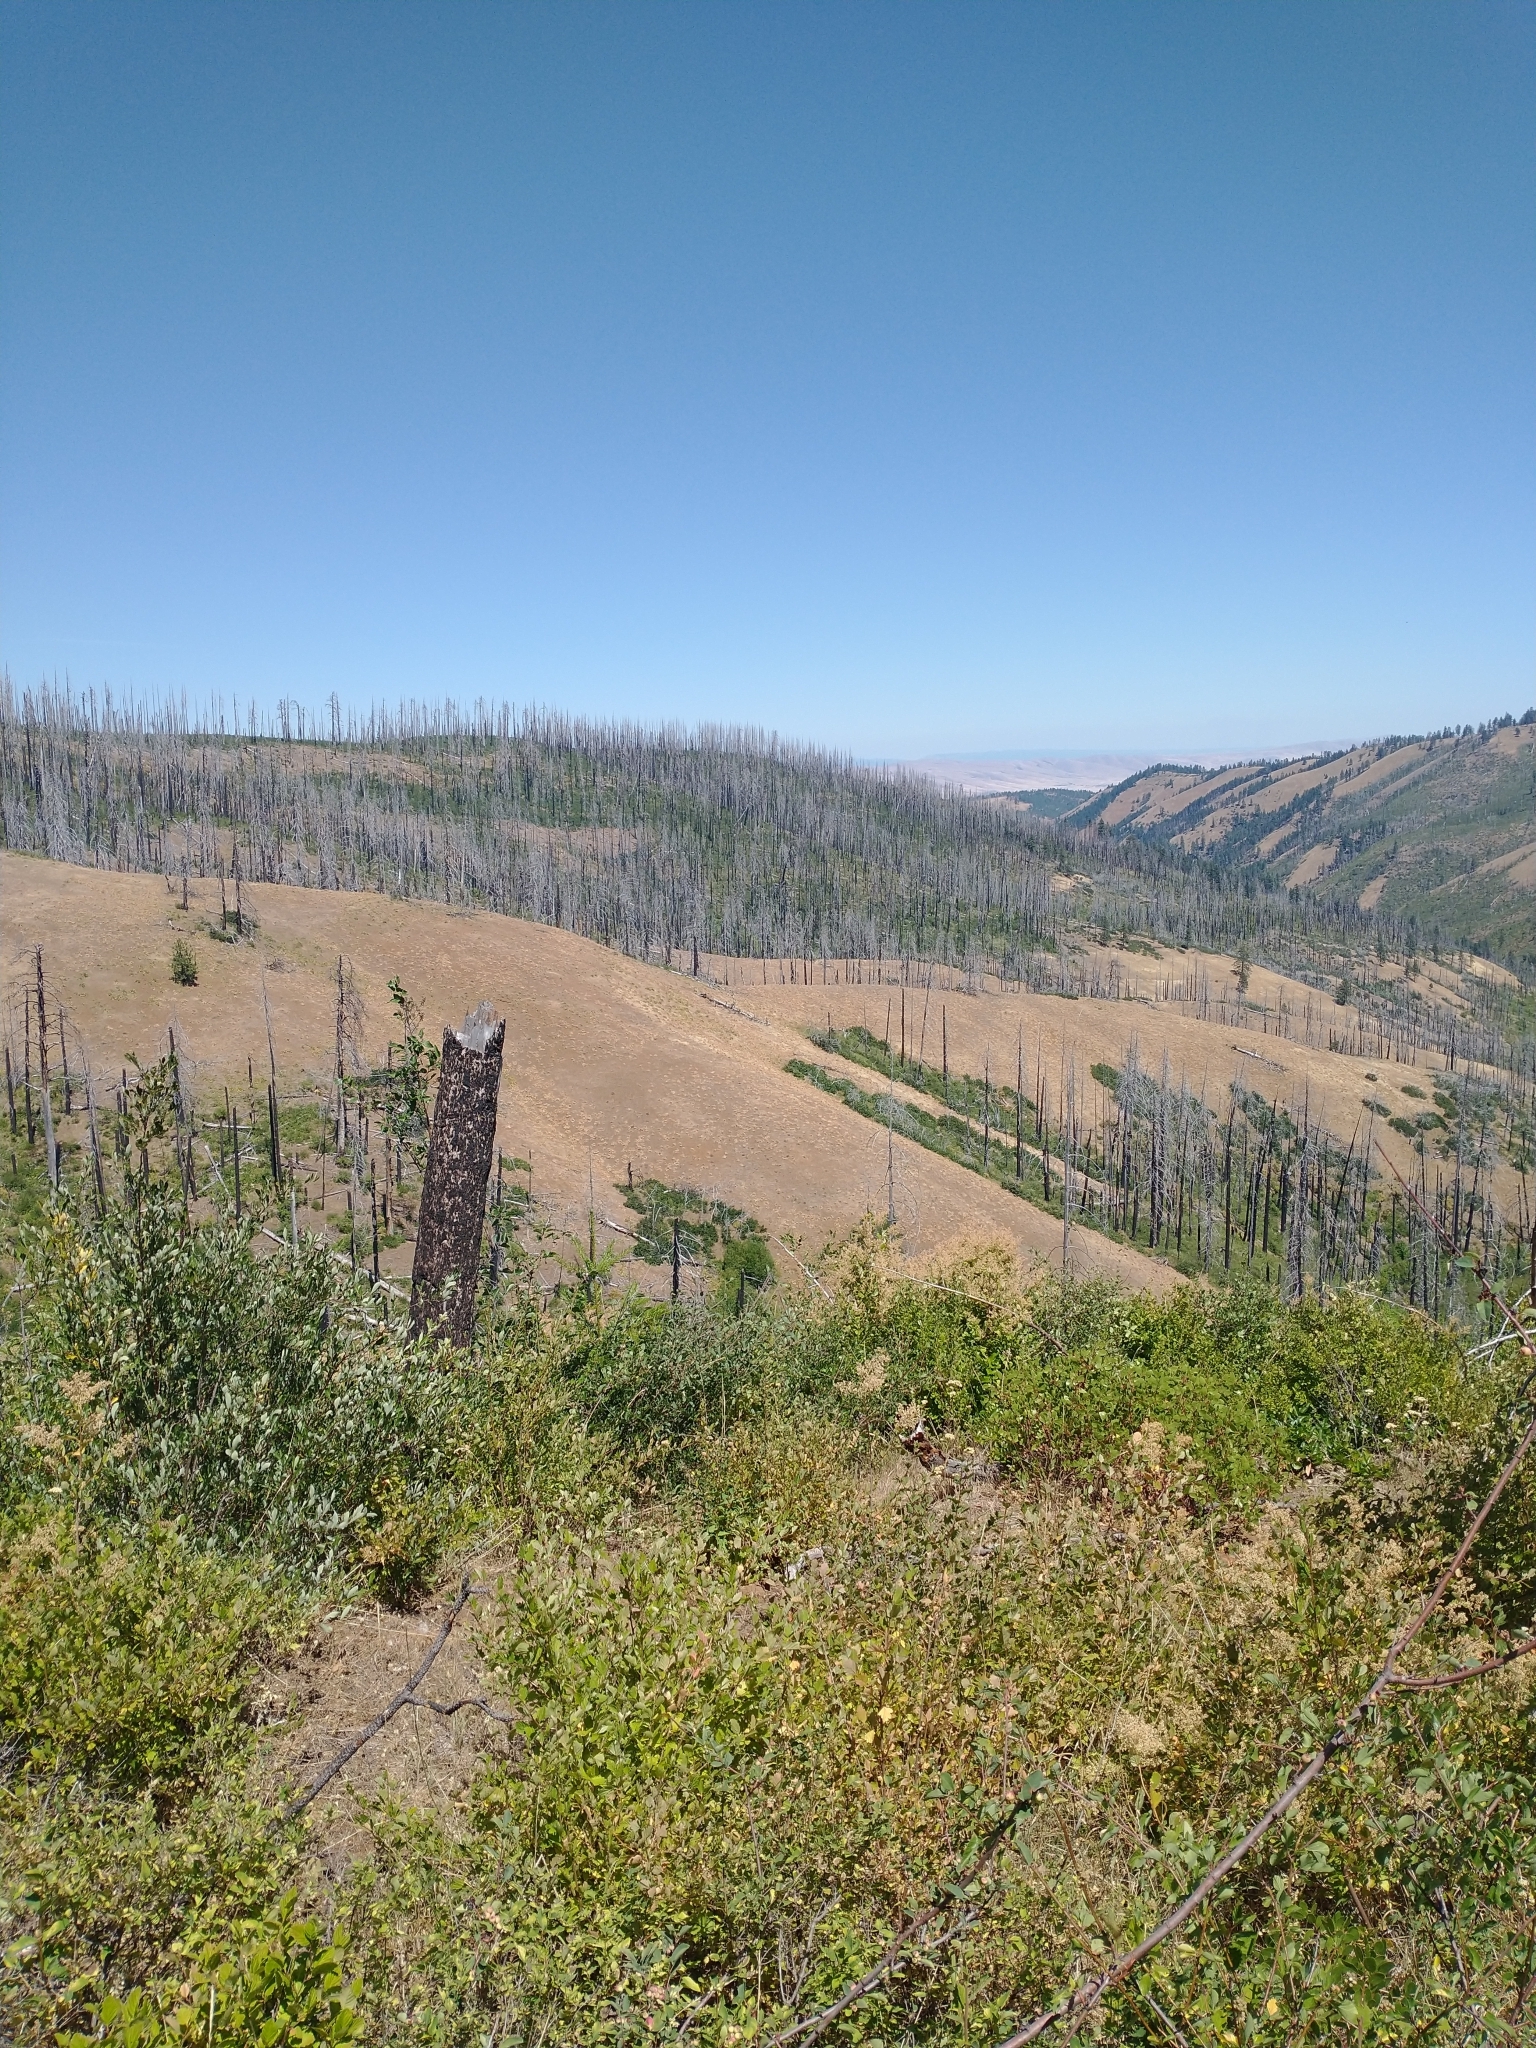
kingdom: Plantae
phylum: Tracheophyta
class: Magnoliopsida
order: Rosales
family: Rosaceae
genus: Holodiscus
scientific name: Holodiscus discolor
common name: Oceanspray
